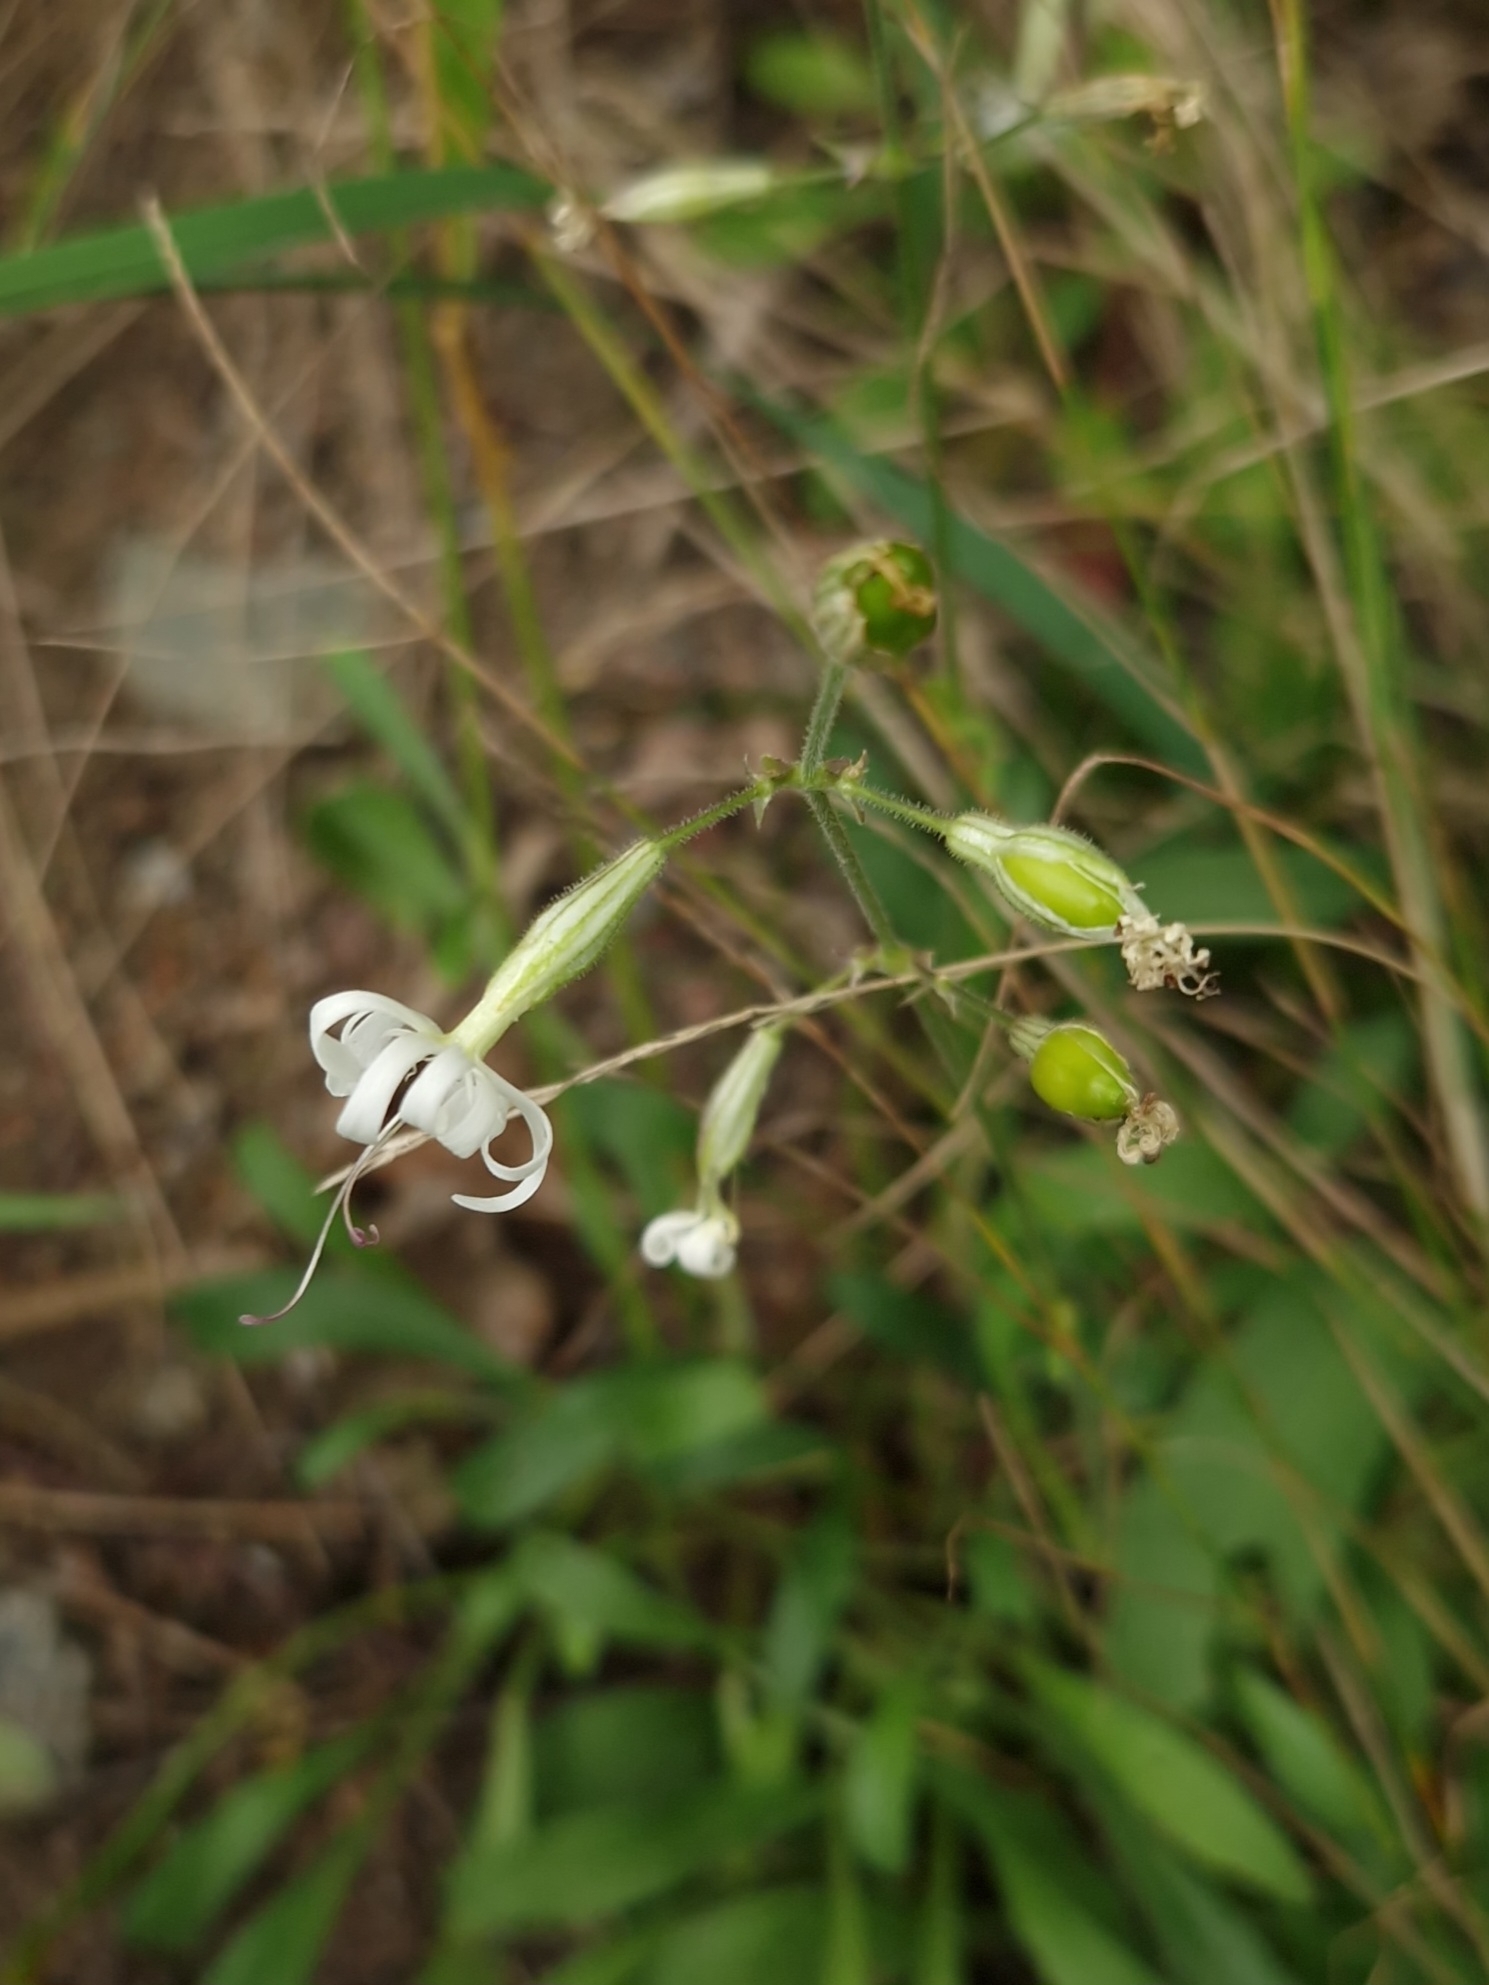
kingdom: Plantae
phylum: Tracheophyta
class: Magnoliopsida
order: Caryophyllales
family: Caryophyllaceae
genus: Silene
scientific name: Silene nutans
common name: Nottingham catchfly
